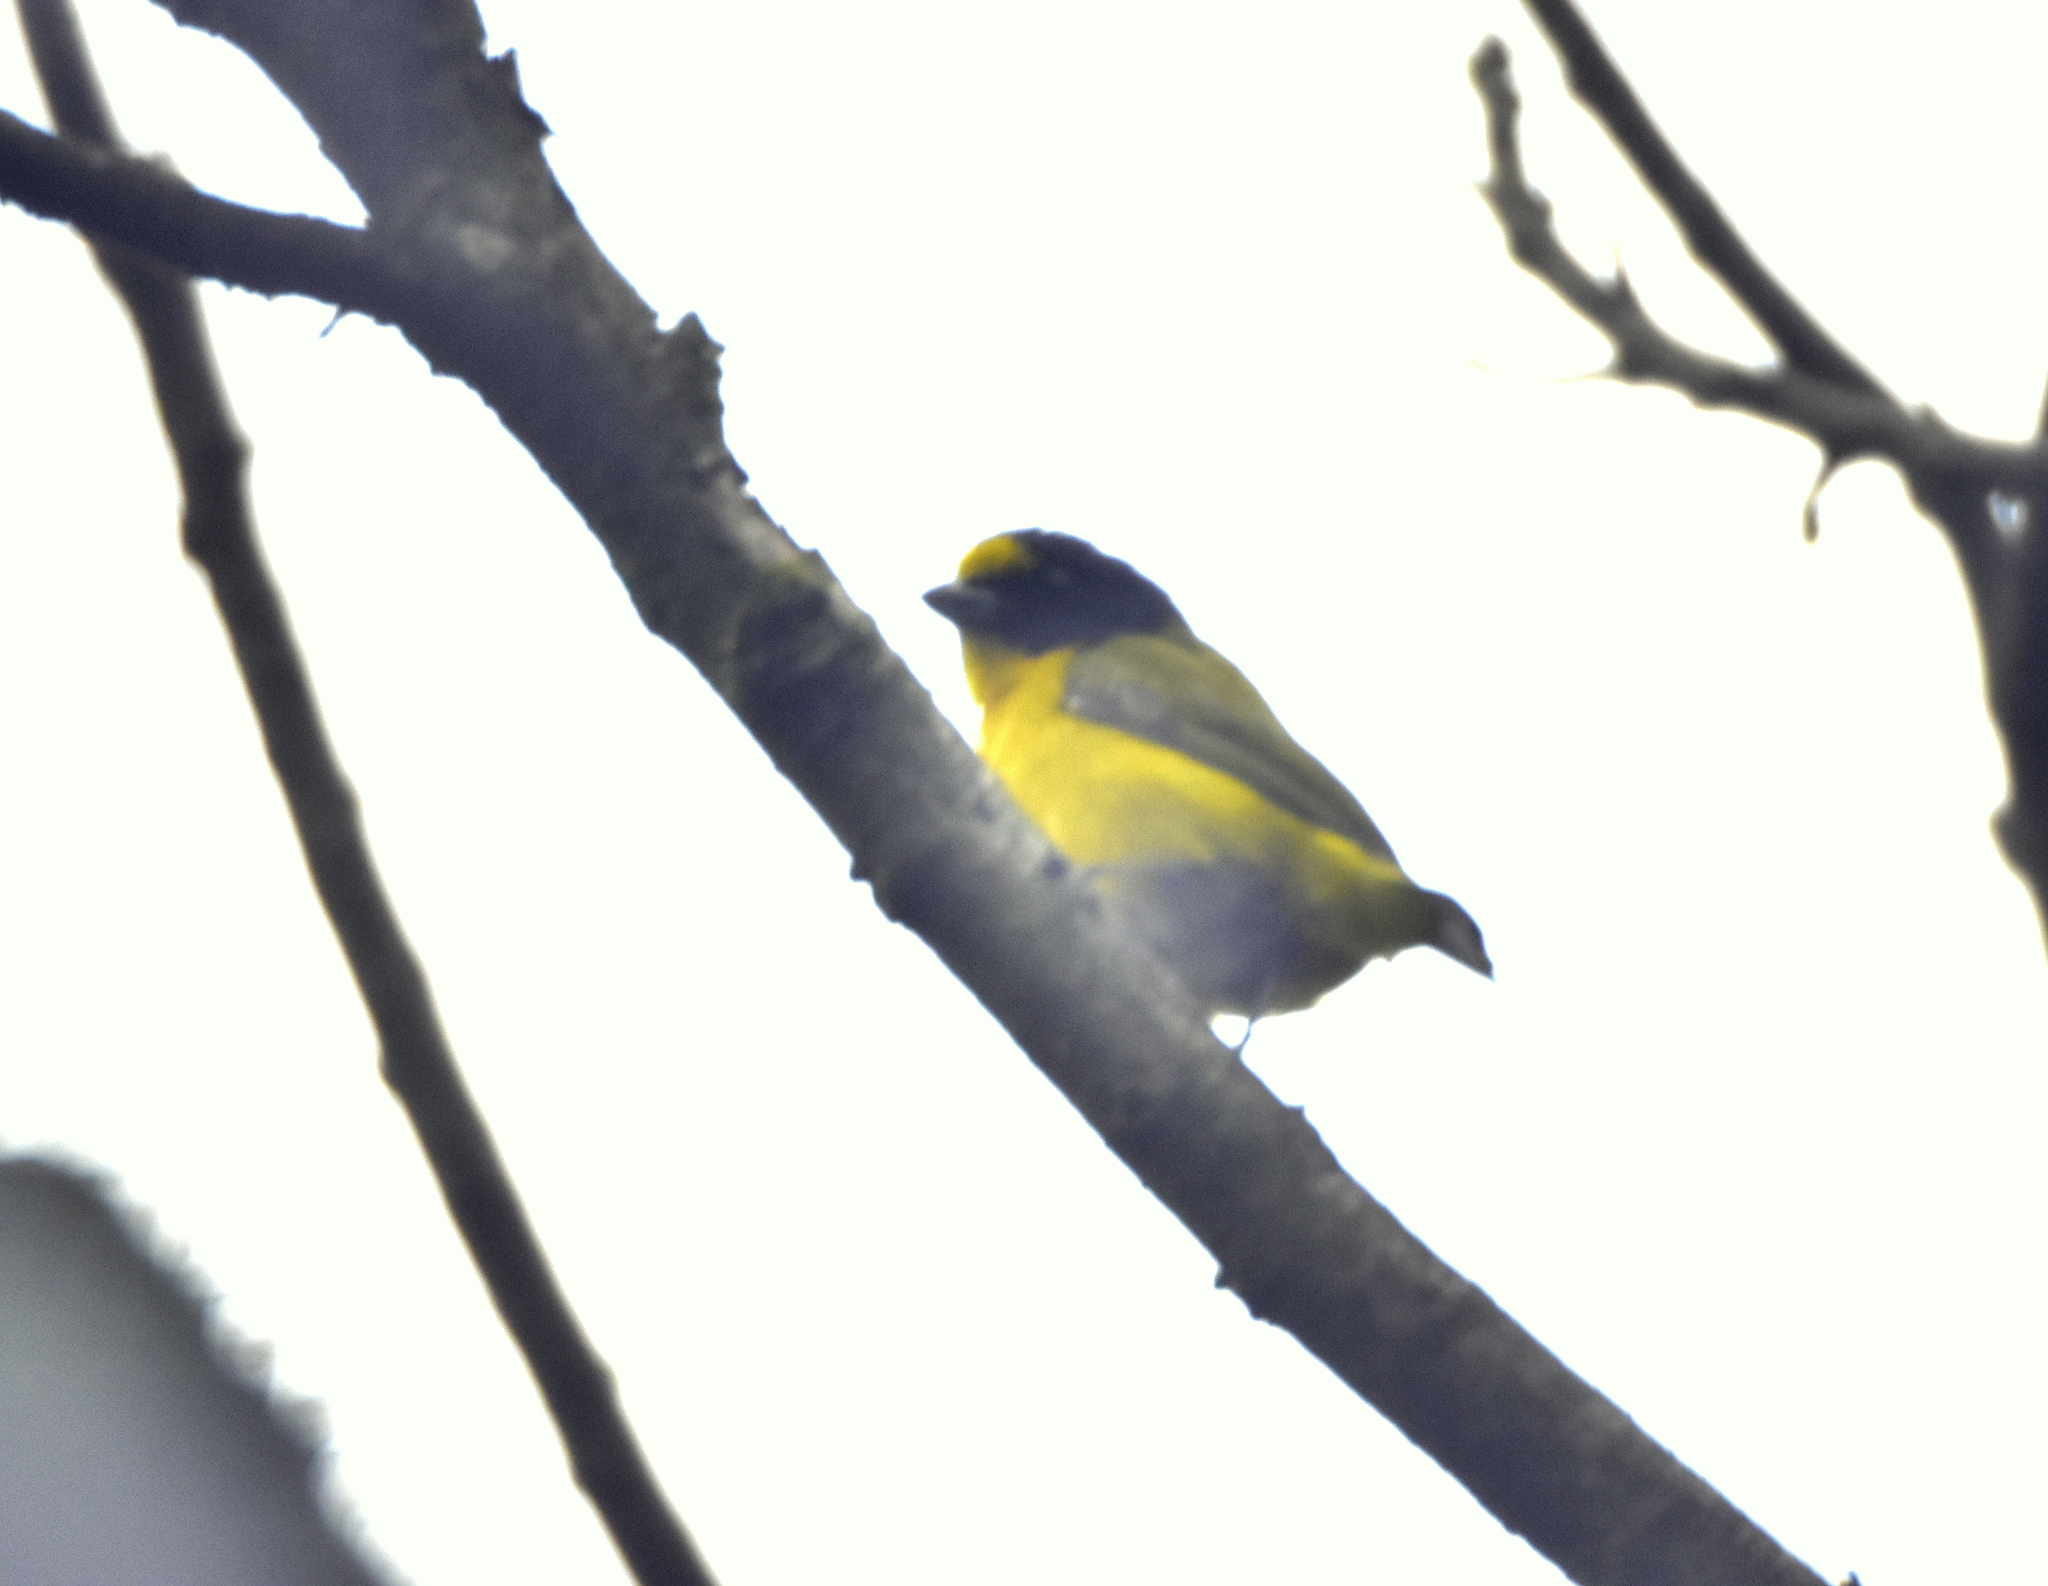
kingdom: Animalia
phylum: Chordata
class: Aves
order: Passeriformes
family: Fringillidae
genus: Euphonia
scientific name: Euphonia hirundinacea
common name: Yellow-throated euphonia
